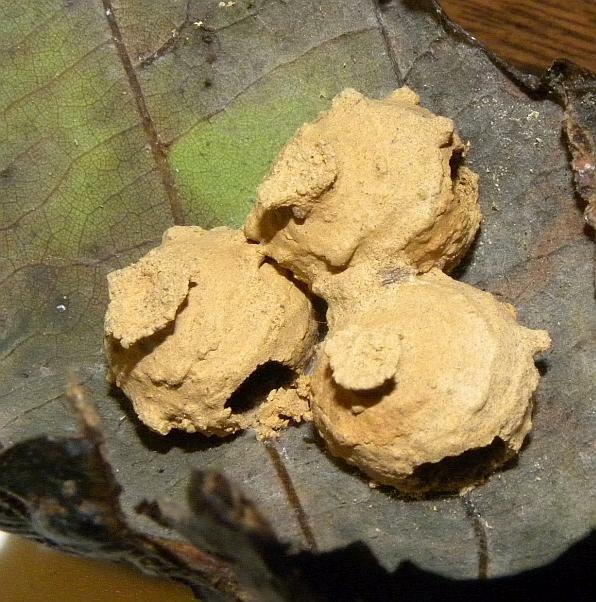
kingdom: Animalia
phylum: Arthropoda
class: Insecta
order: Hymenoptera
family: Vespidae
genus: Eumenes
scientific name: Eumenes fraternus
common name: Fraternal potter wasp
